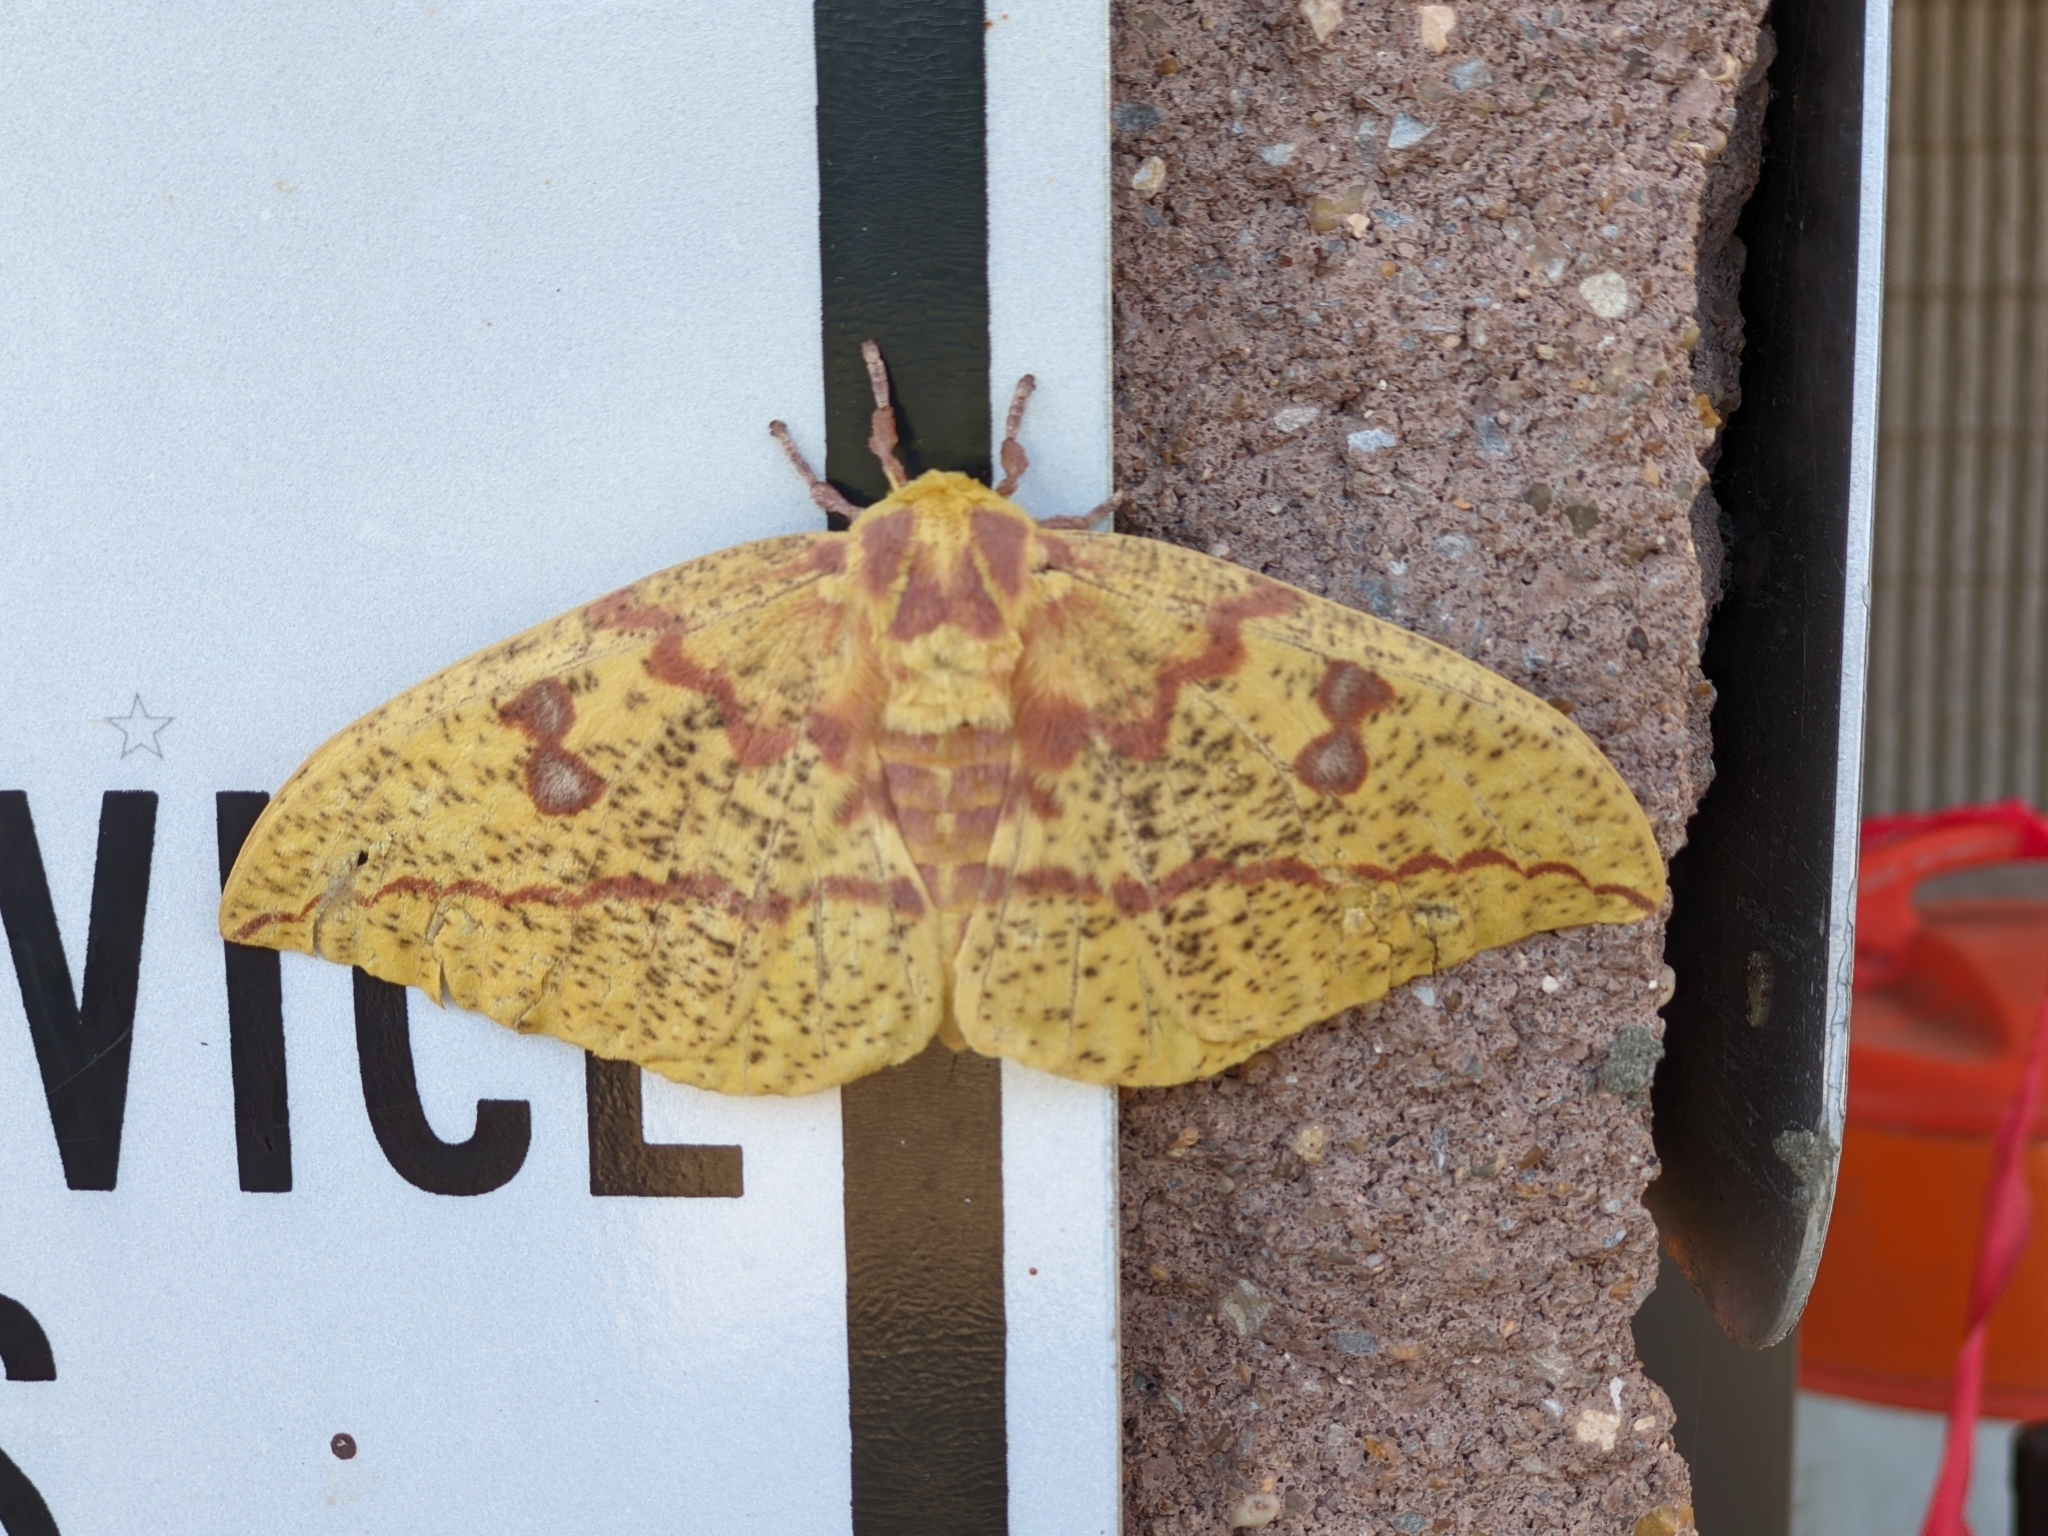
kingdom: Animalia
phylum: Arthropoda
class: Insecta
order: Lepidoptera
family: Saturniidae
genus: Eacles
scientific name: Eacles imperialis
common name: Imperial moth
